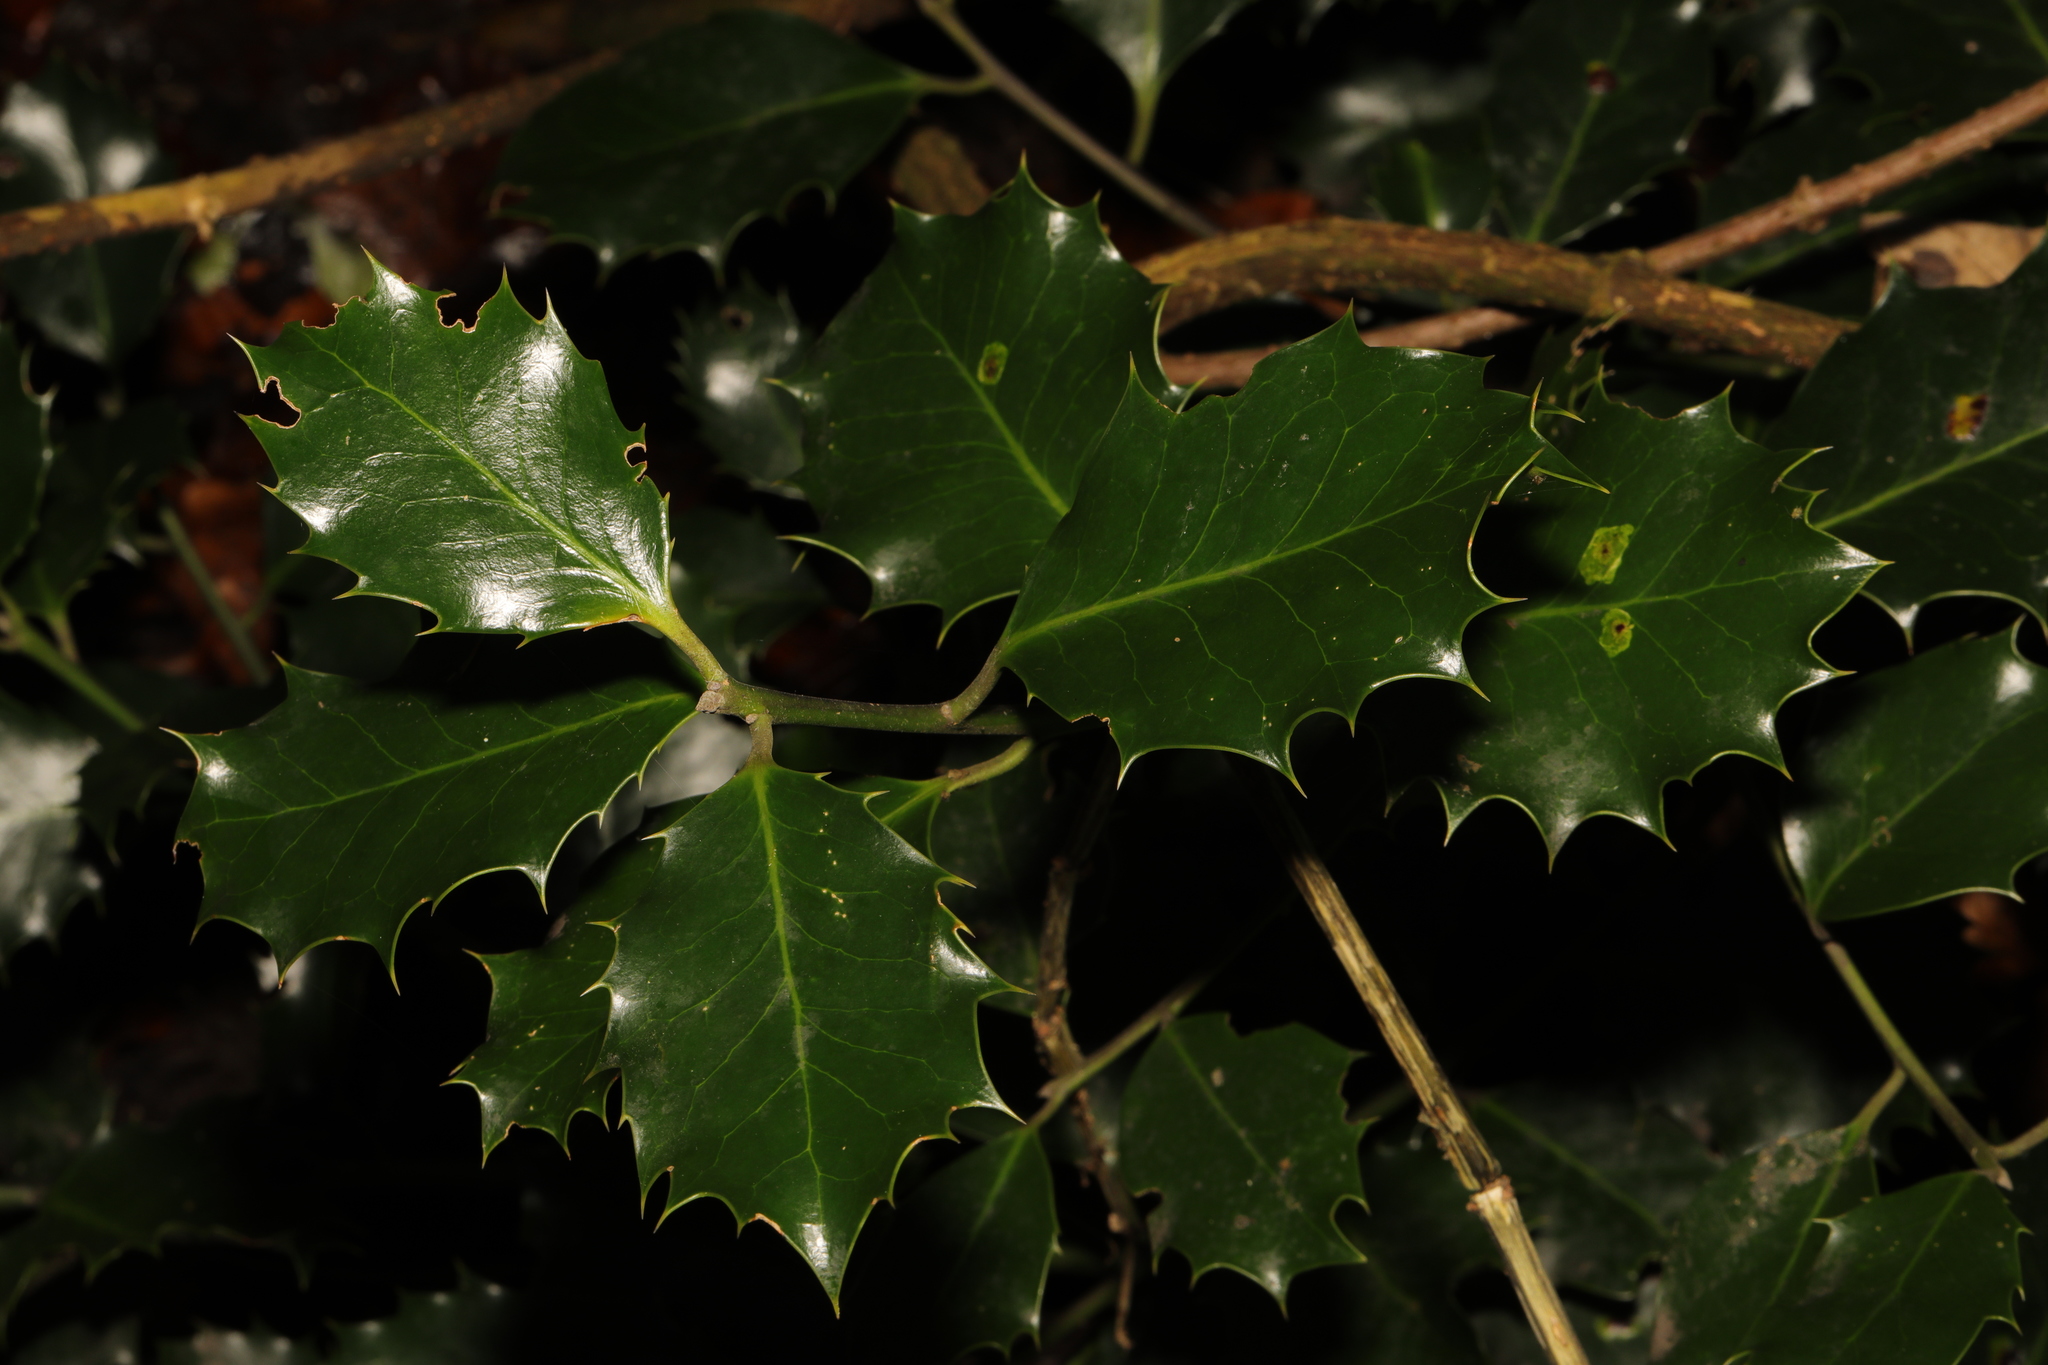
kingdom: Plantae
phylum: Tracheophyta
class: Magnoliopsida
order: Aquifoliales
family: Aquifoliaceae
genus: Ilex
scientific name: Ilex aquifolium
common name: English holly
